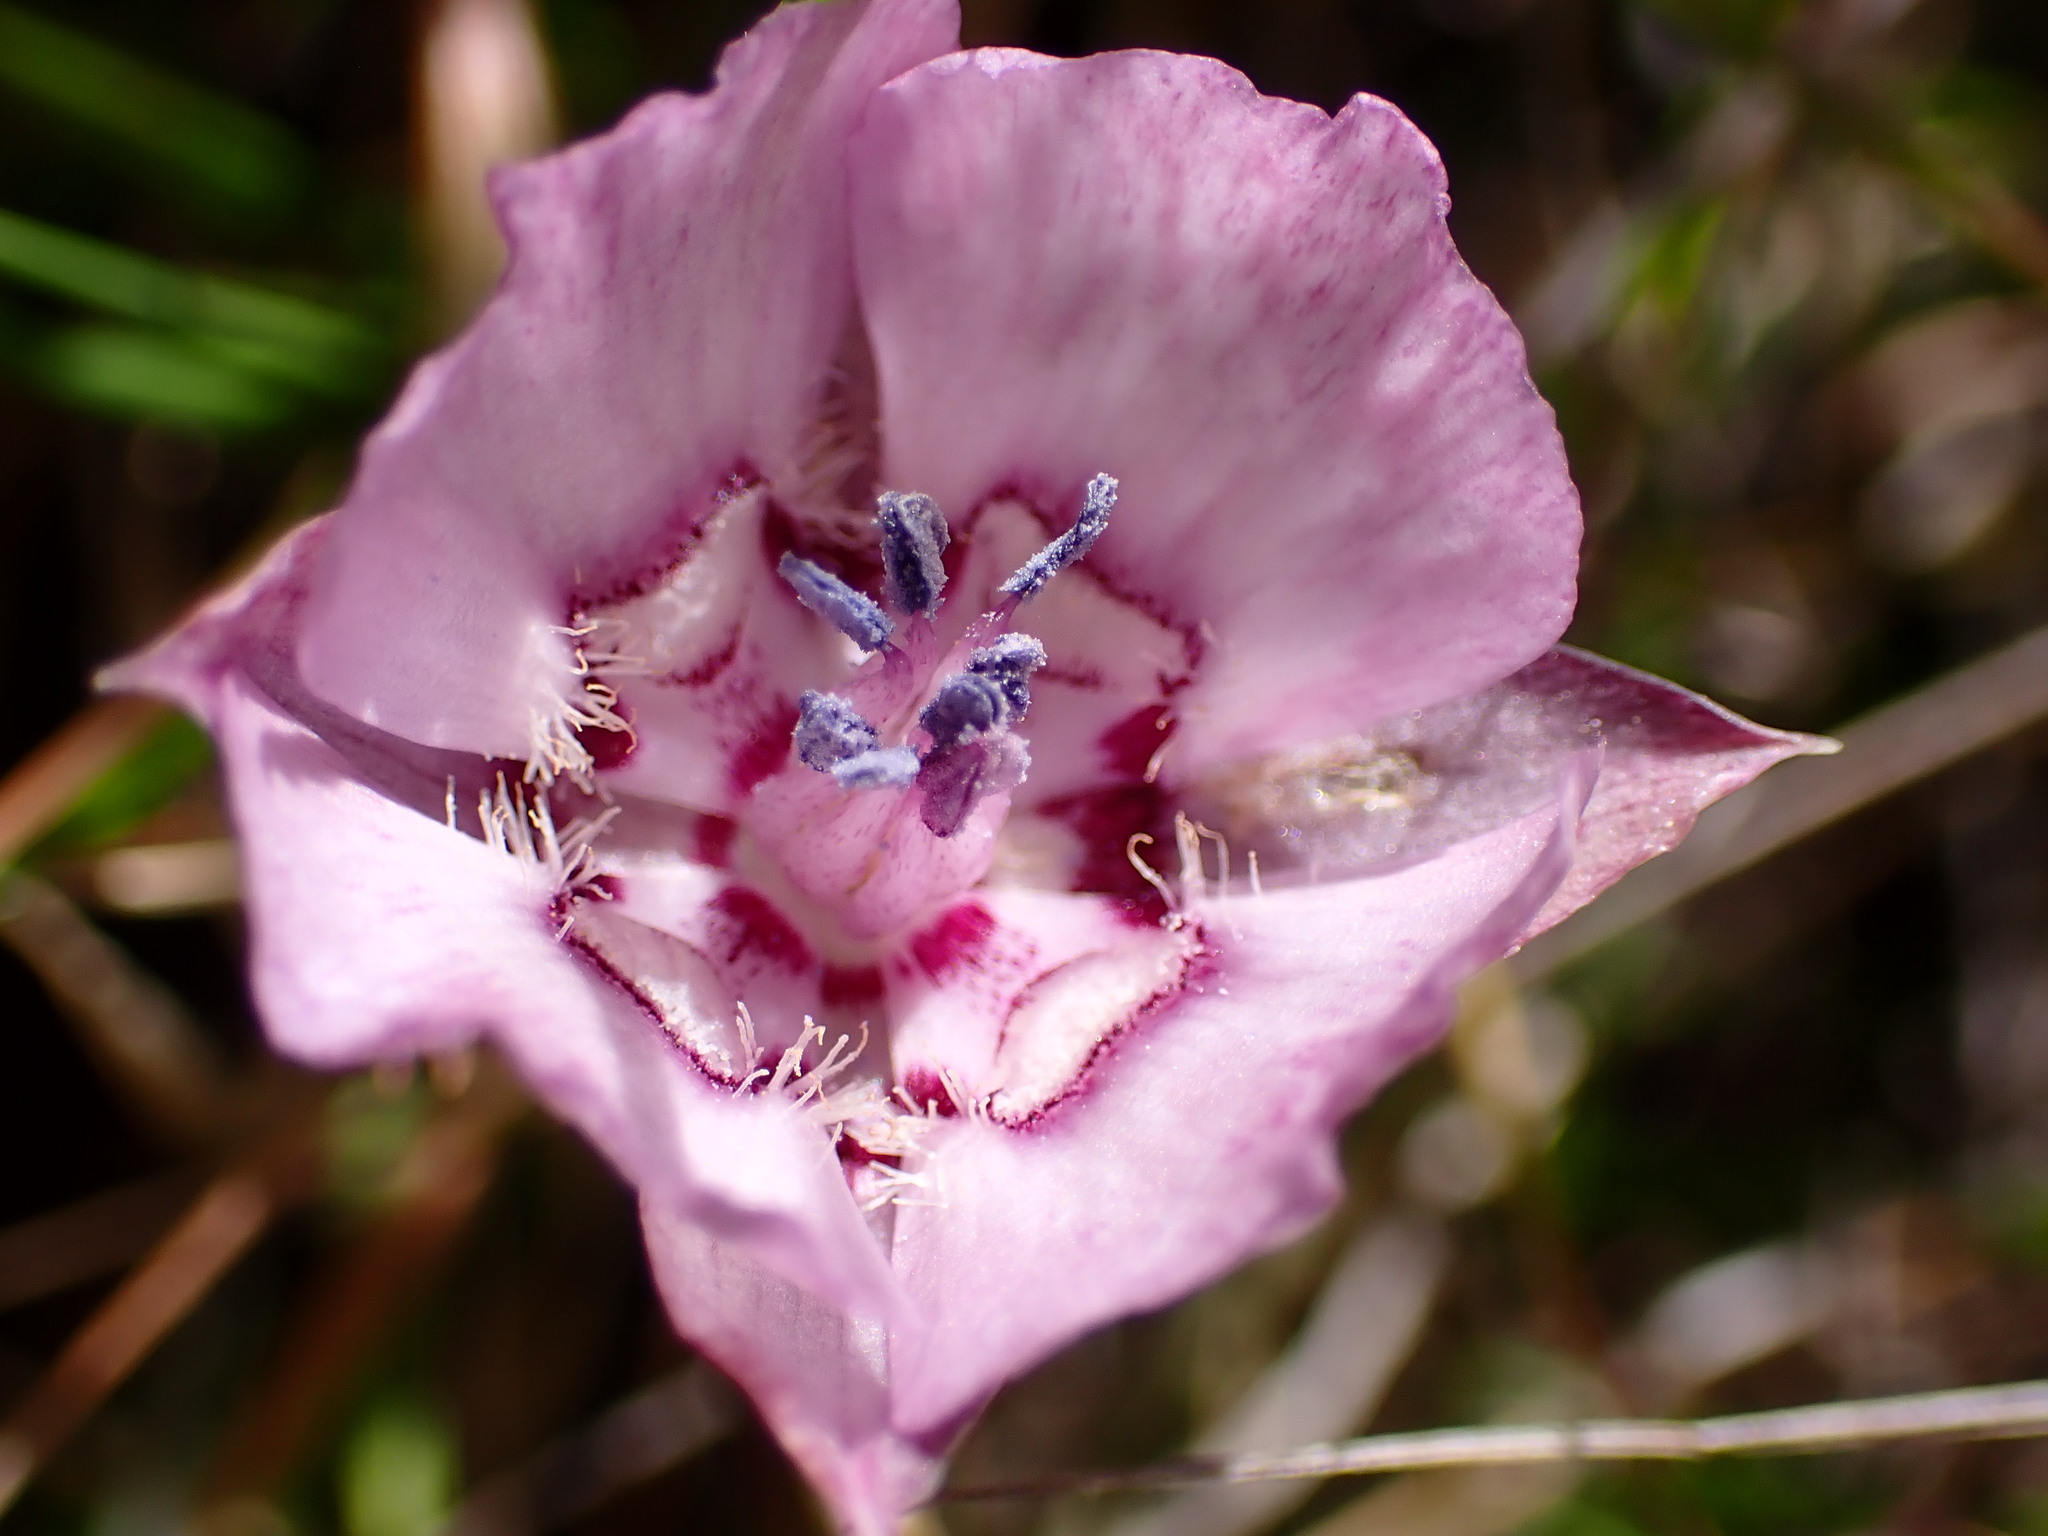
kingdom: Plantae
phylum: Tracheophyta
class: Liliopsida
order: Liliales
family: Liliaceae
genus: Calochortus
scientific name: Calochortus umbellatus
